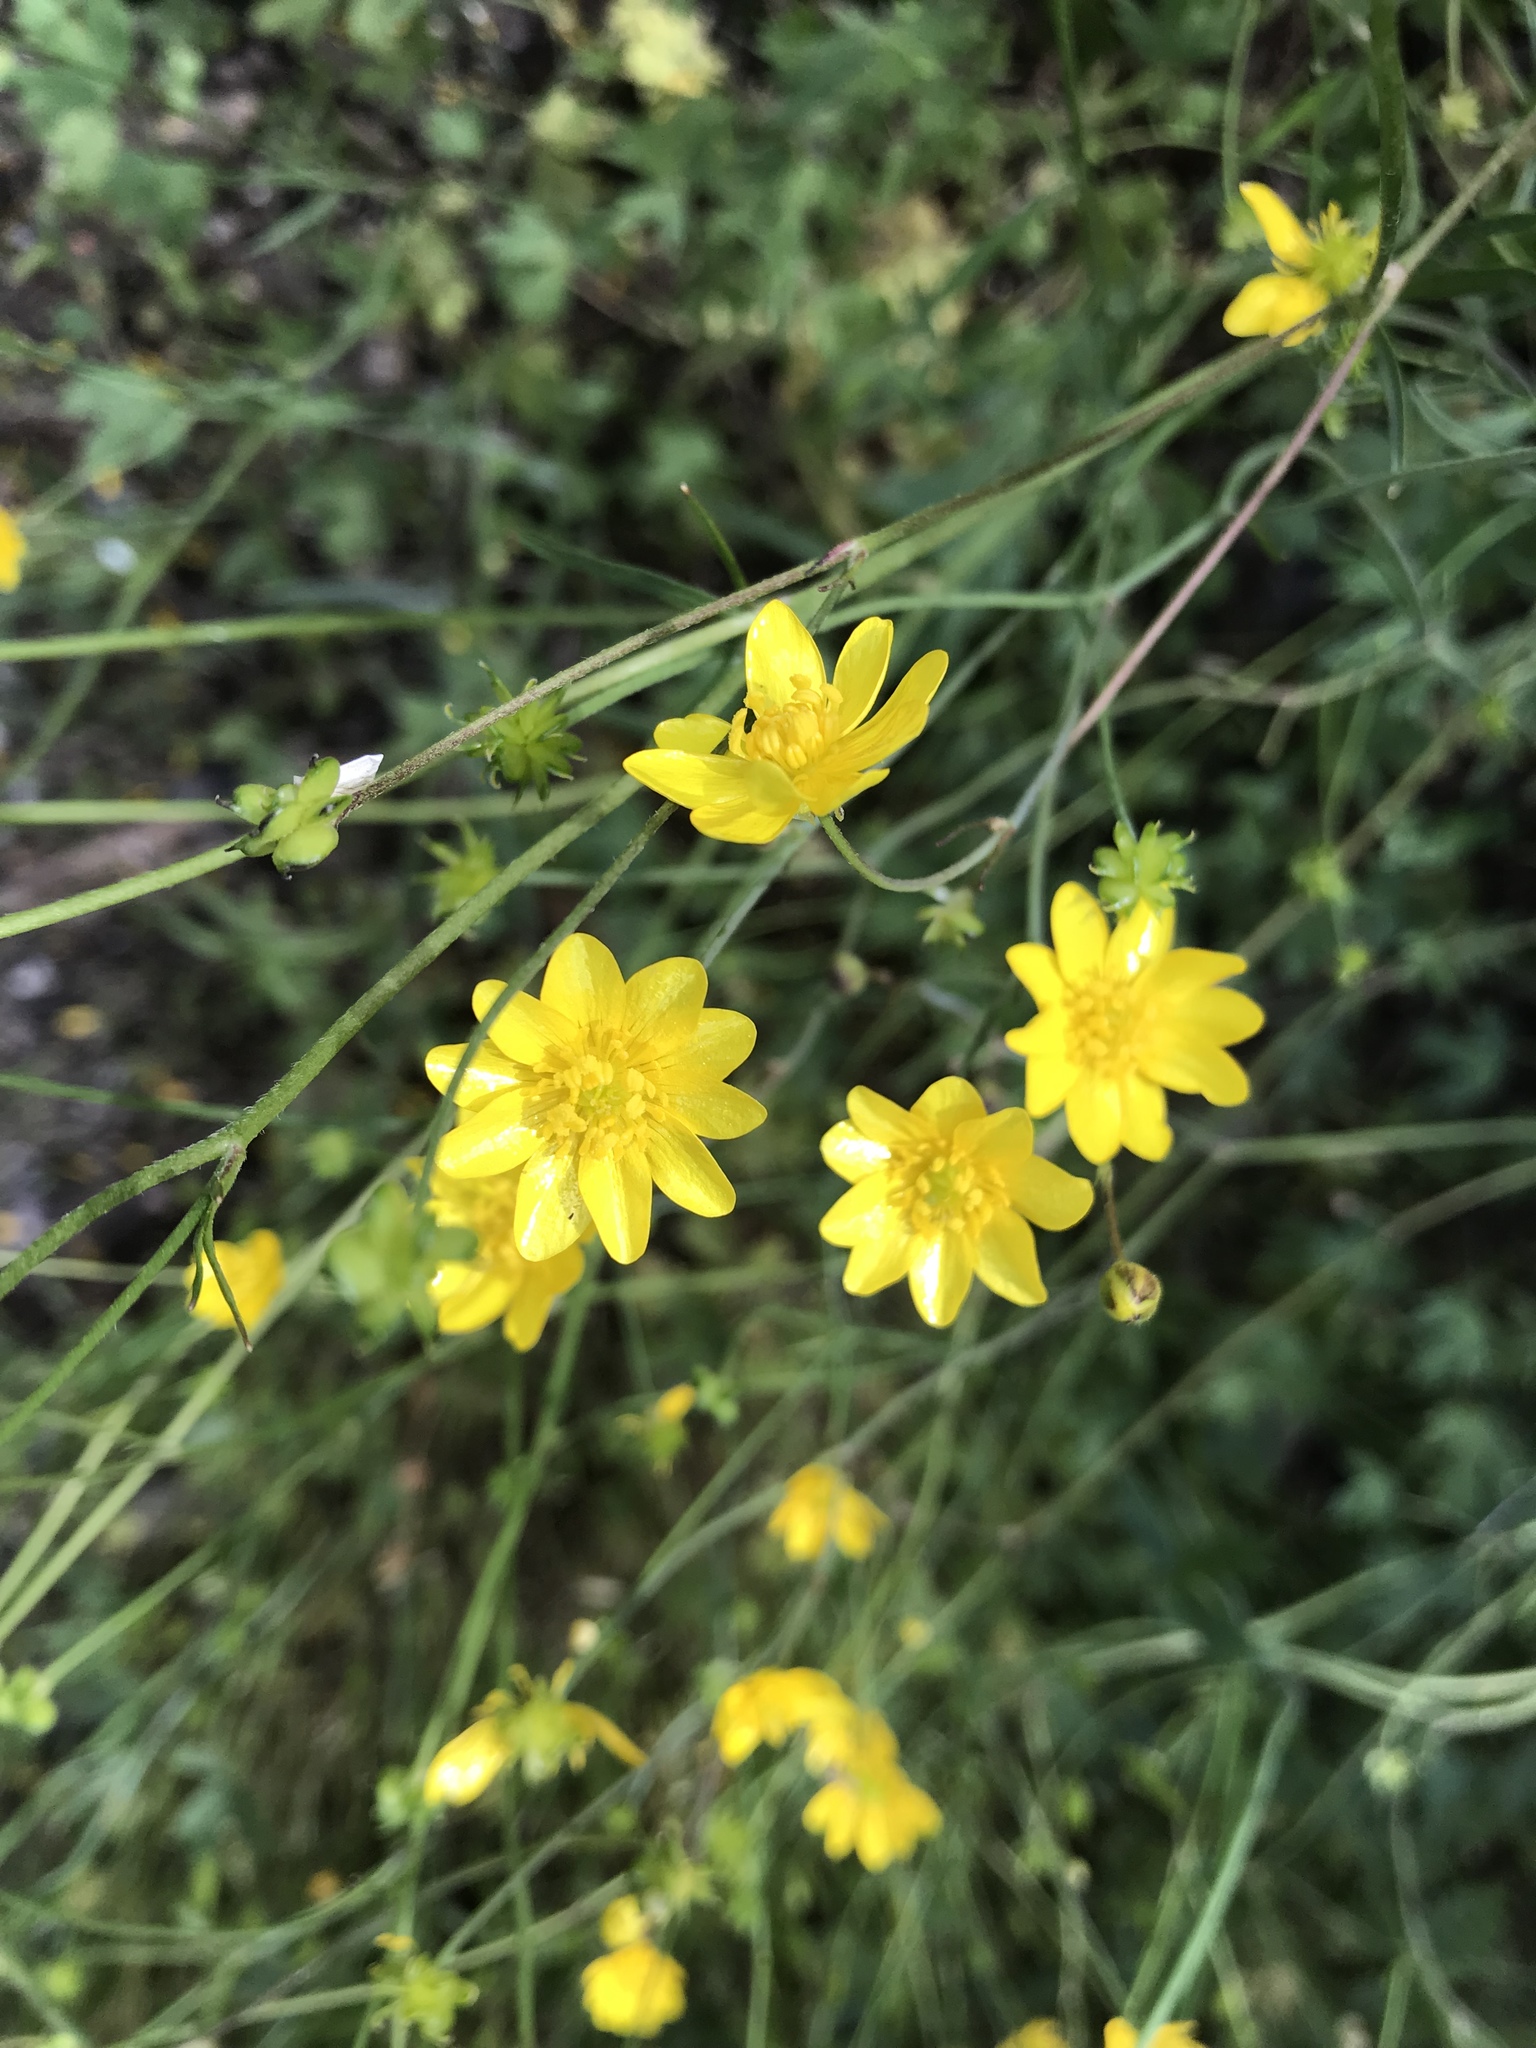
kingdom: Plantae
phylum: Tracheophyta
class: Magnoliopsida
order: Ranunculales
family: Ranunculaceae
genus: Ranunculus
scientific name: Ranunculus californicus
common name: California buttercup
